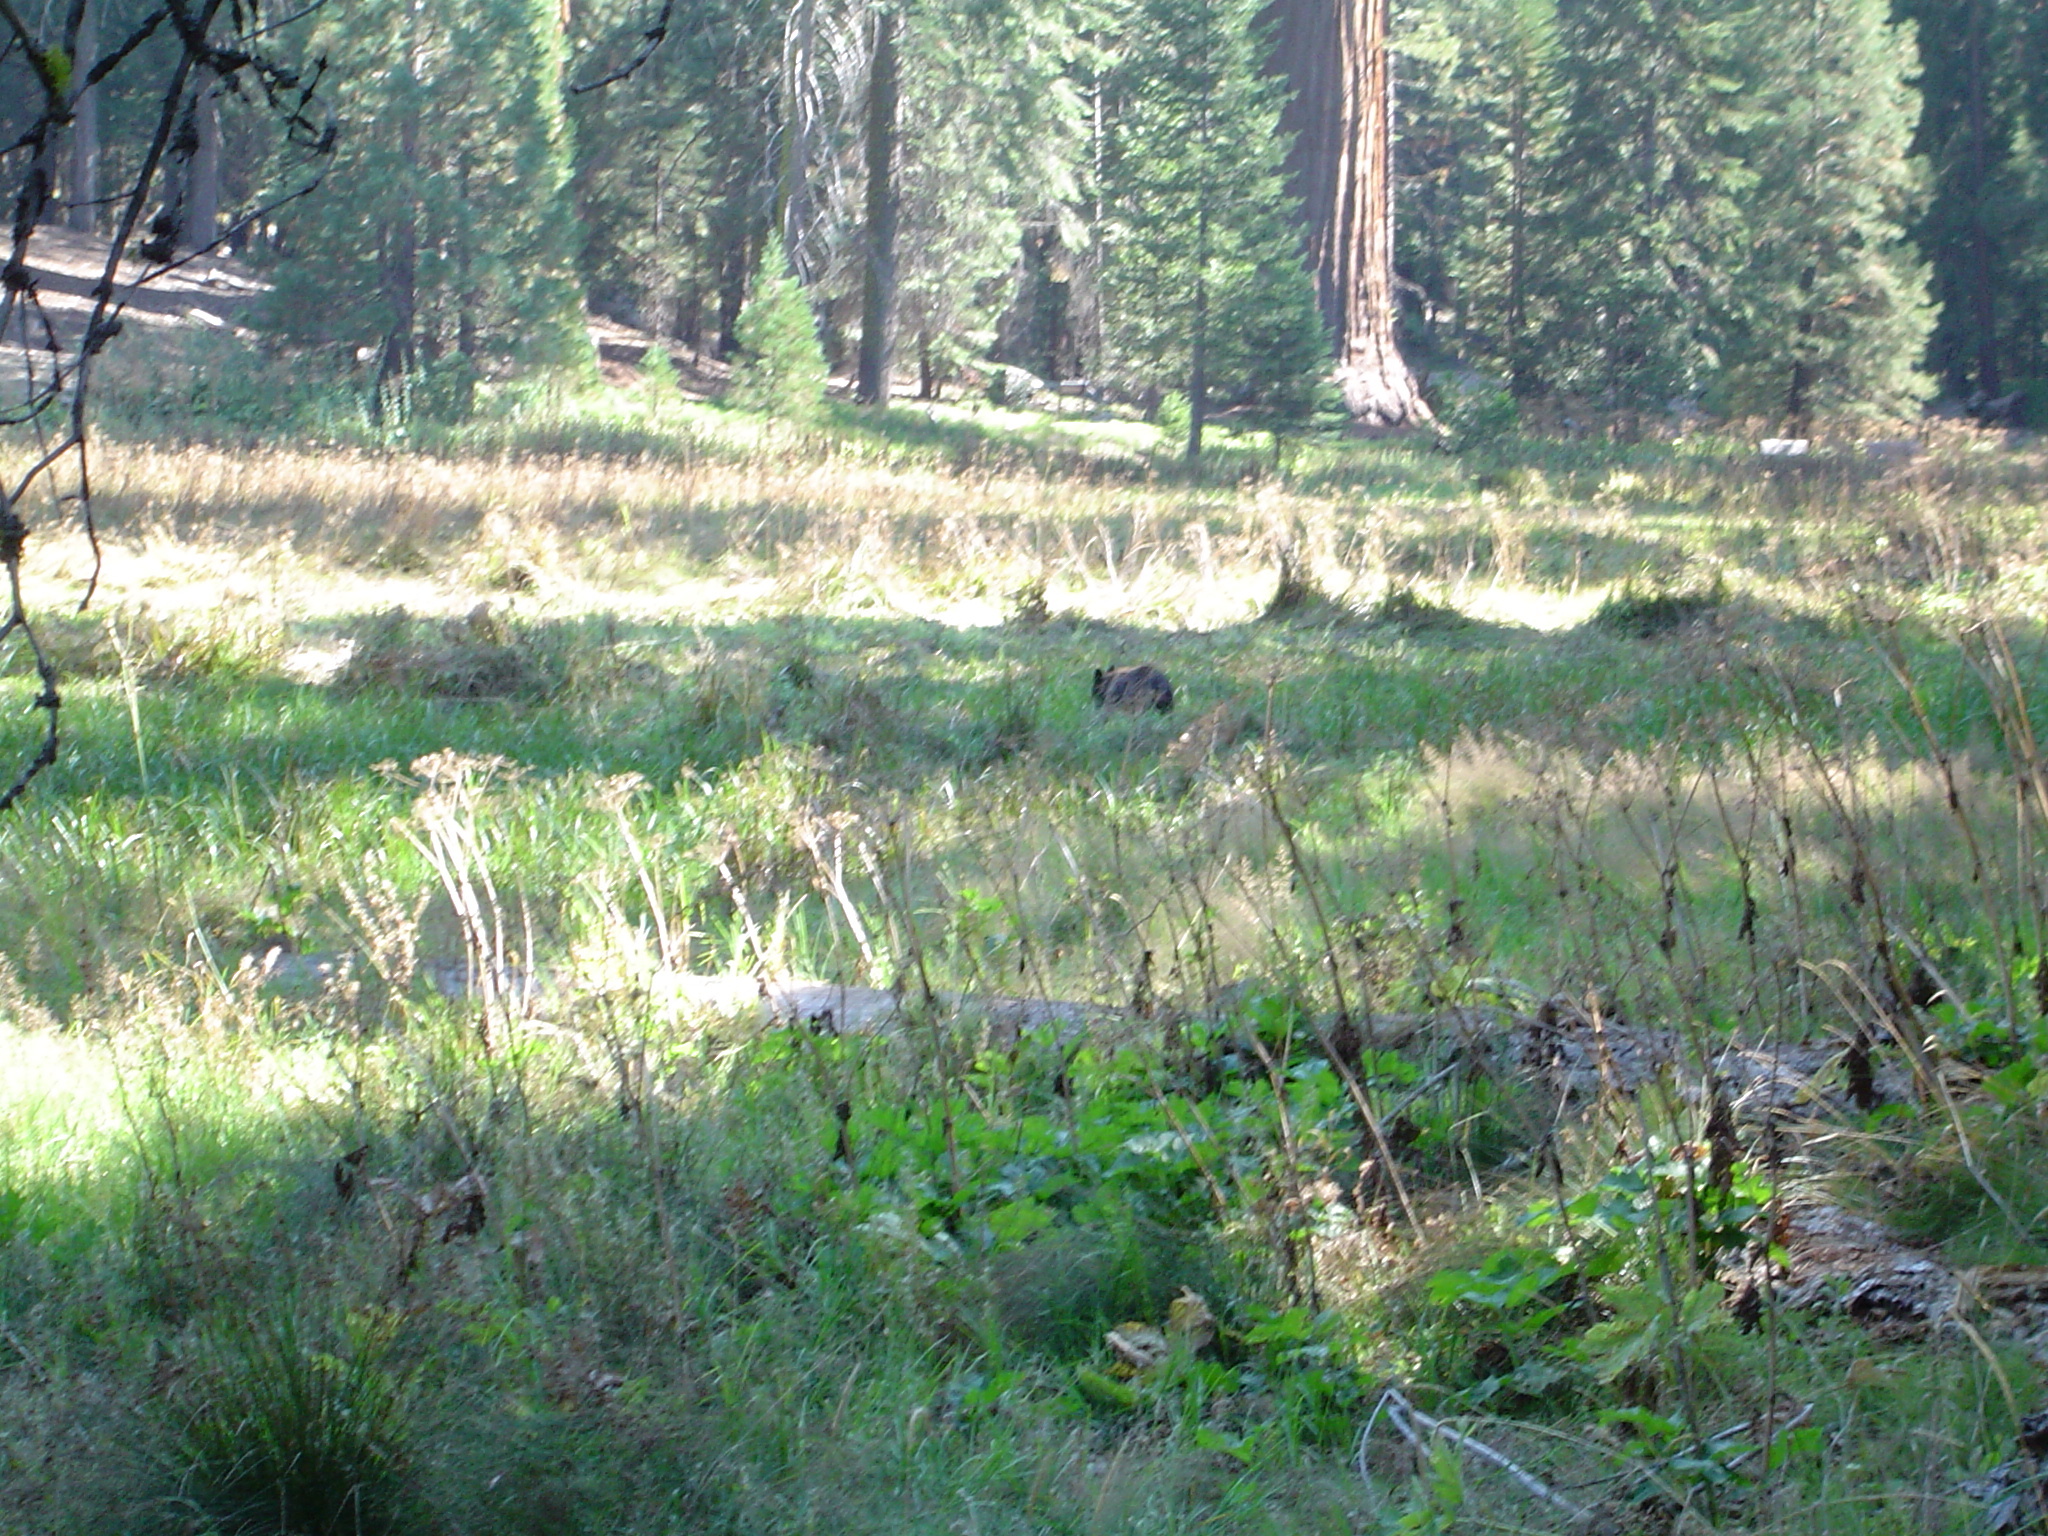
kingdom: Animalia
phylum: Chordata
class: Mammalia
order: Carnivora
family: Ursidae
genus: Ursus
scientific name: Ursus americanus
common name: American black bear
